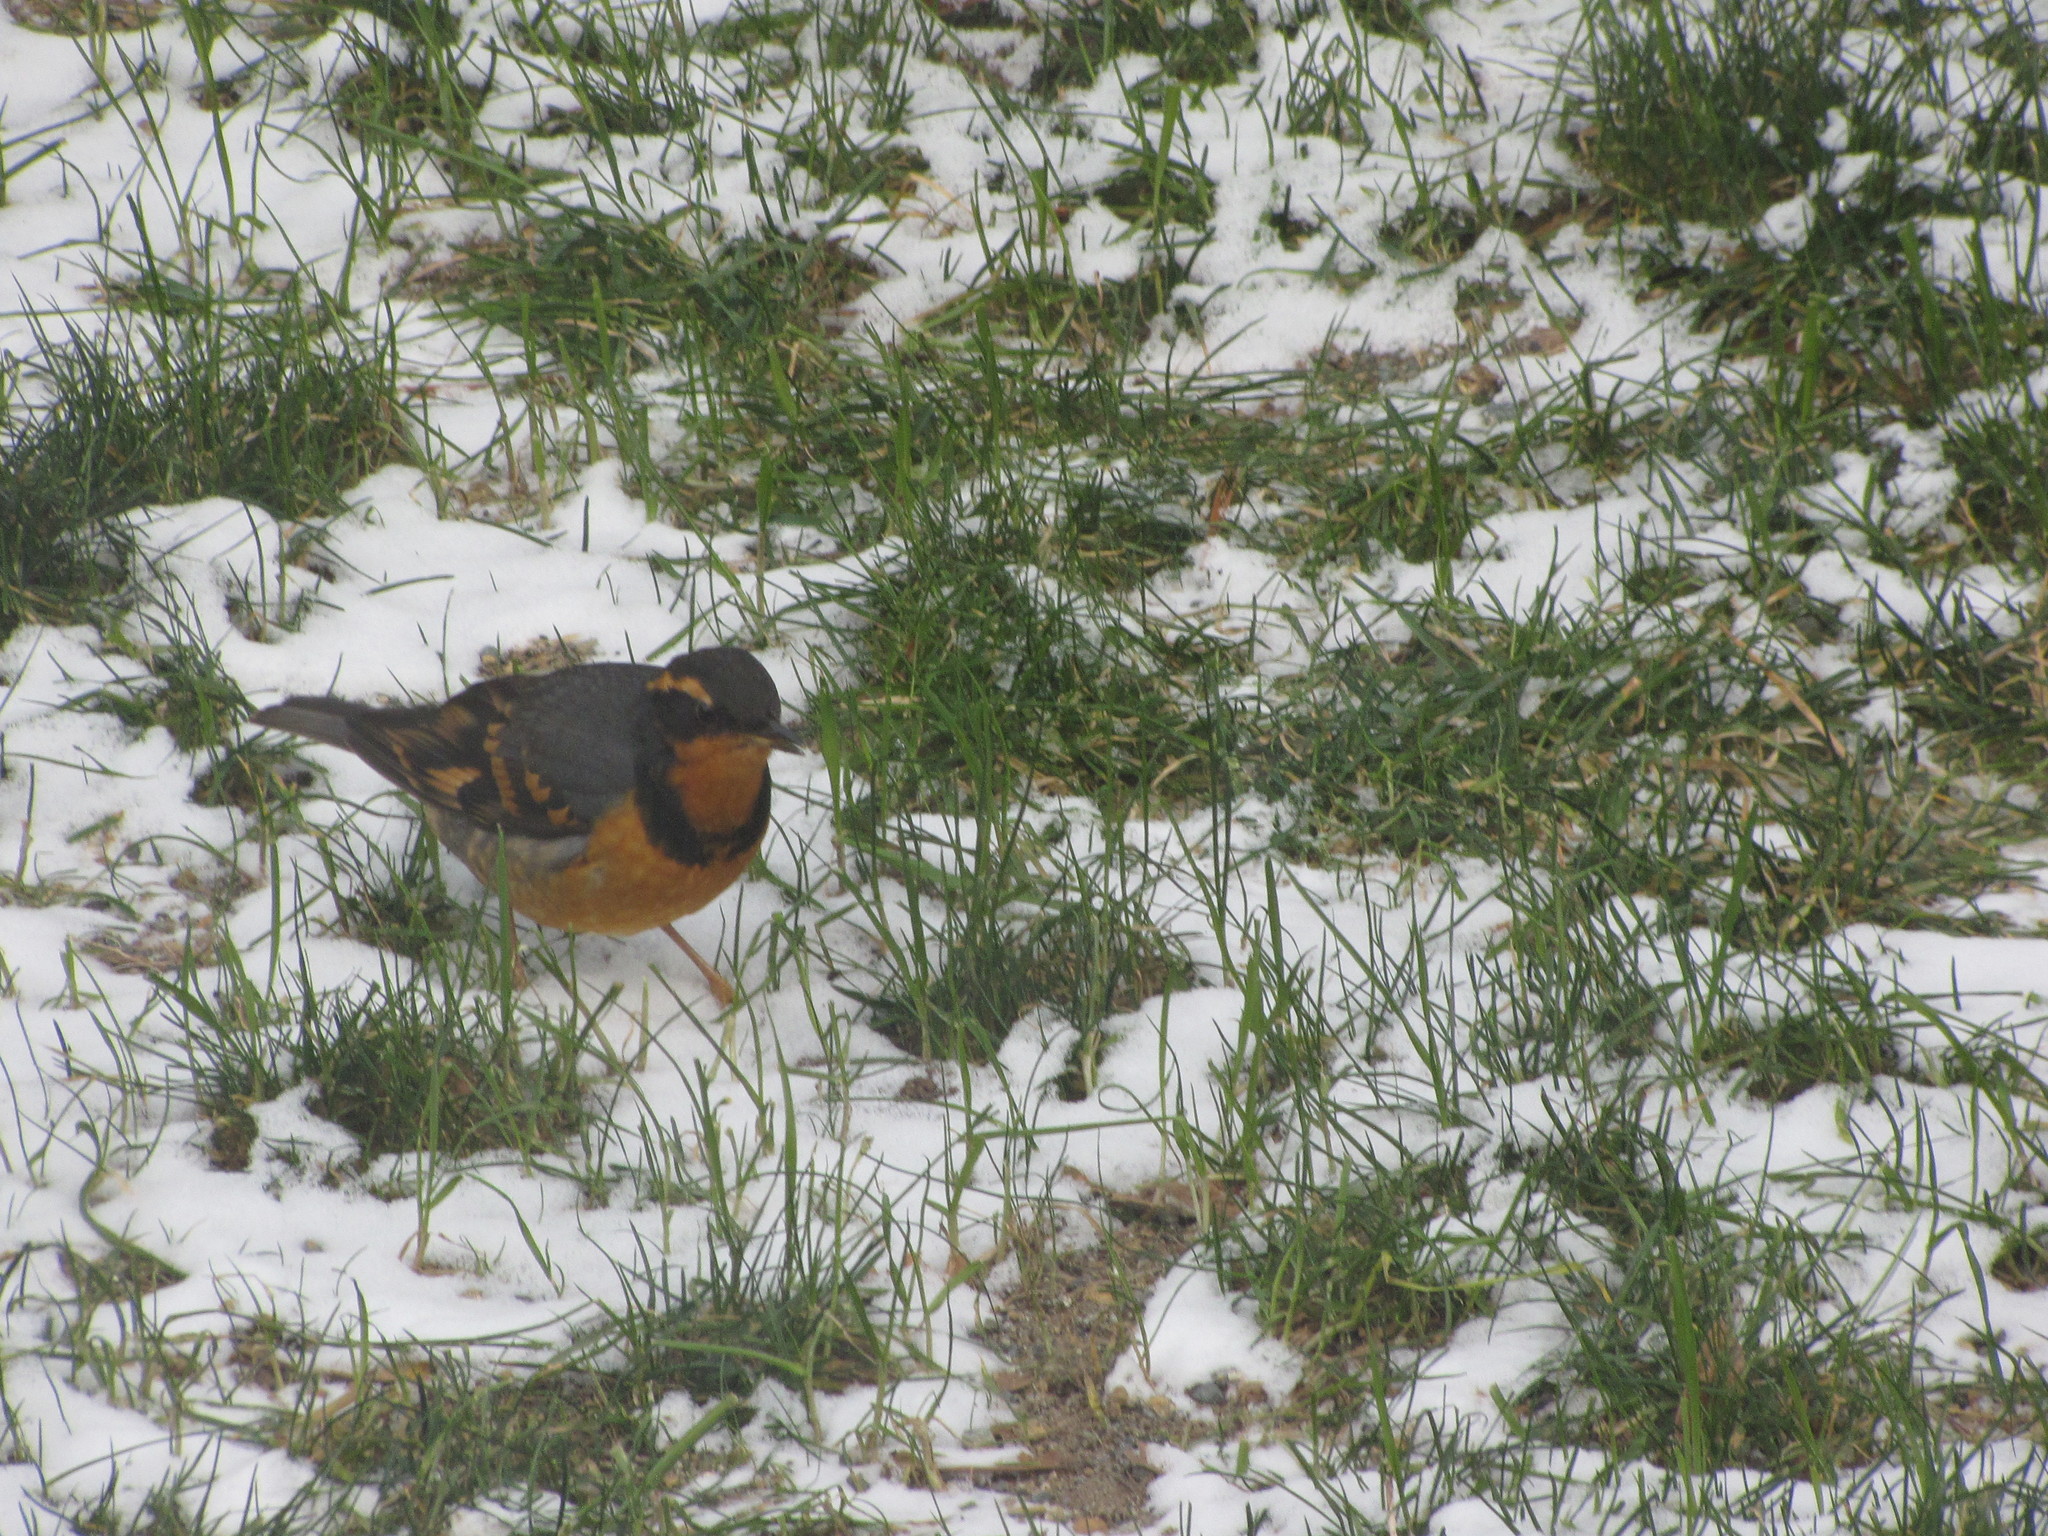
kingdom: Animalia
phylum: Chordata
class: Aves
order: Passeriformes
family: Turdidae
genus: Ixoreus
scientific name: Ixoreus naevius
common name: Varied thrush
